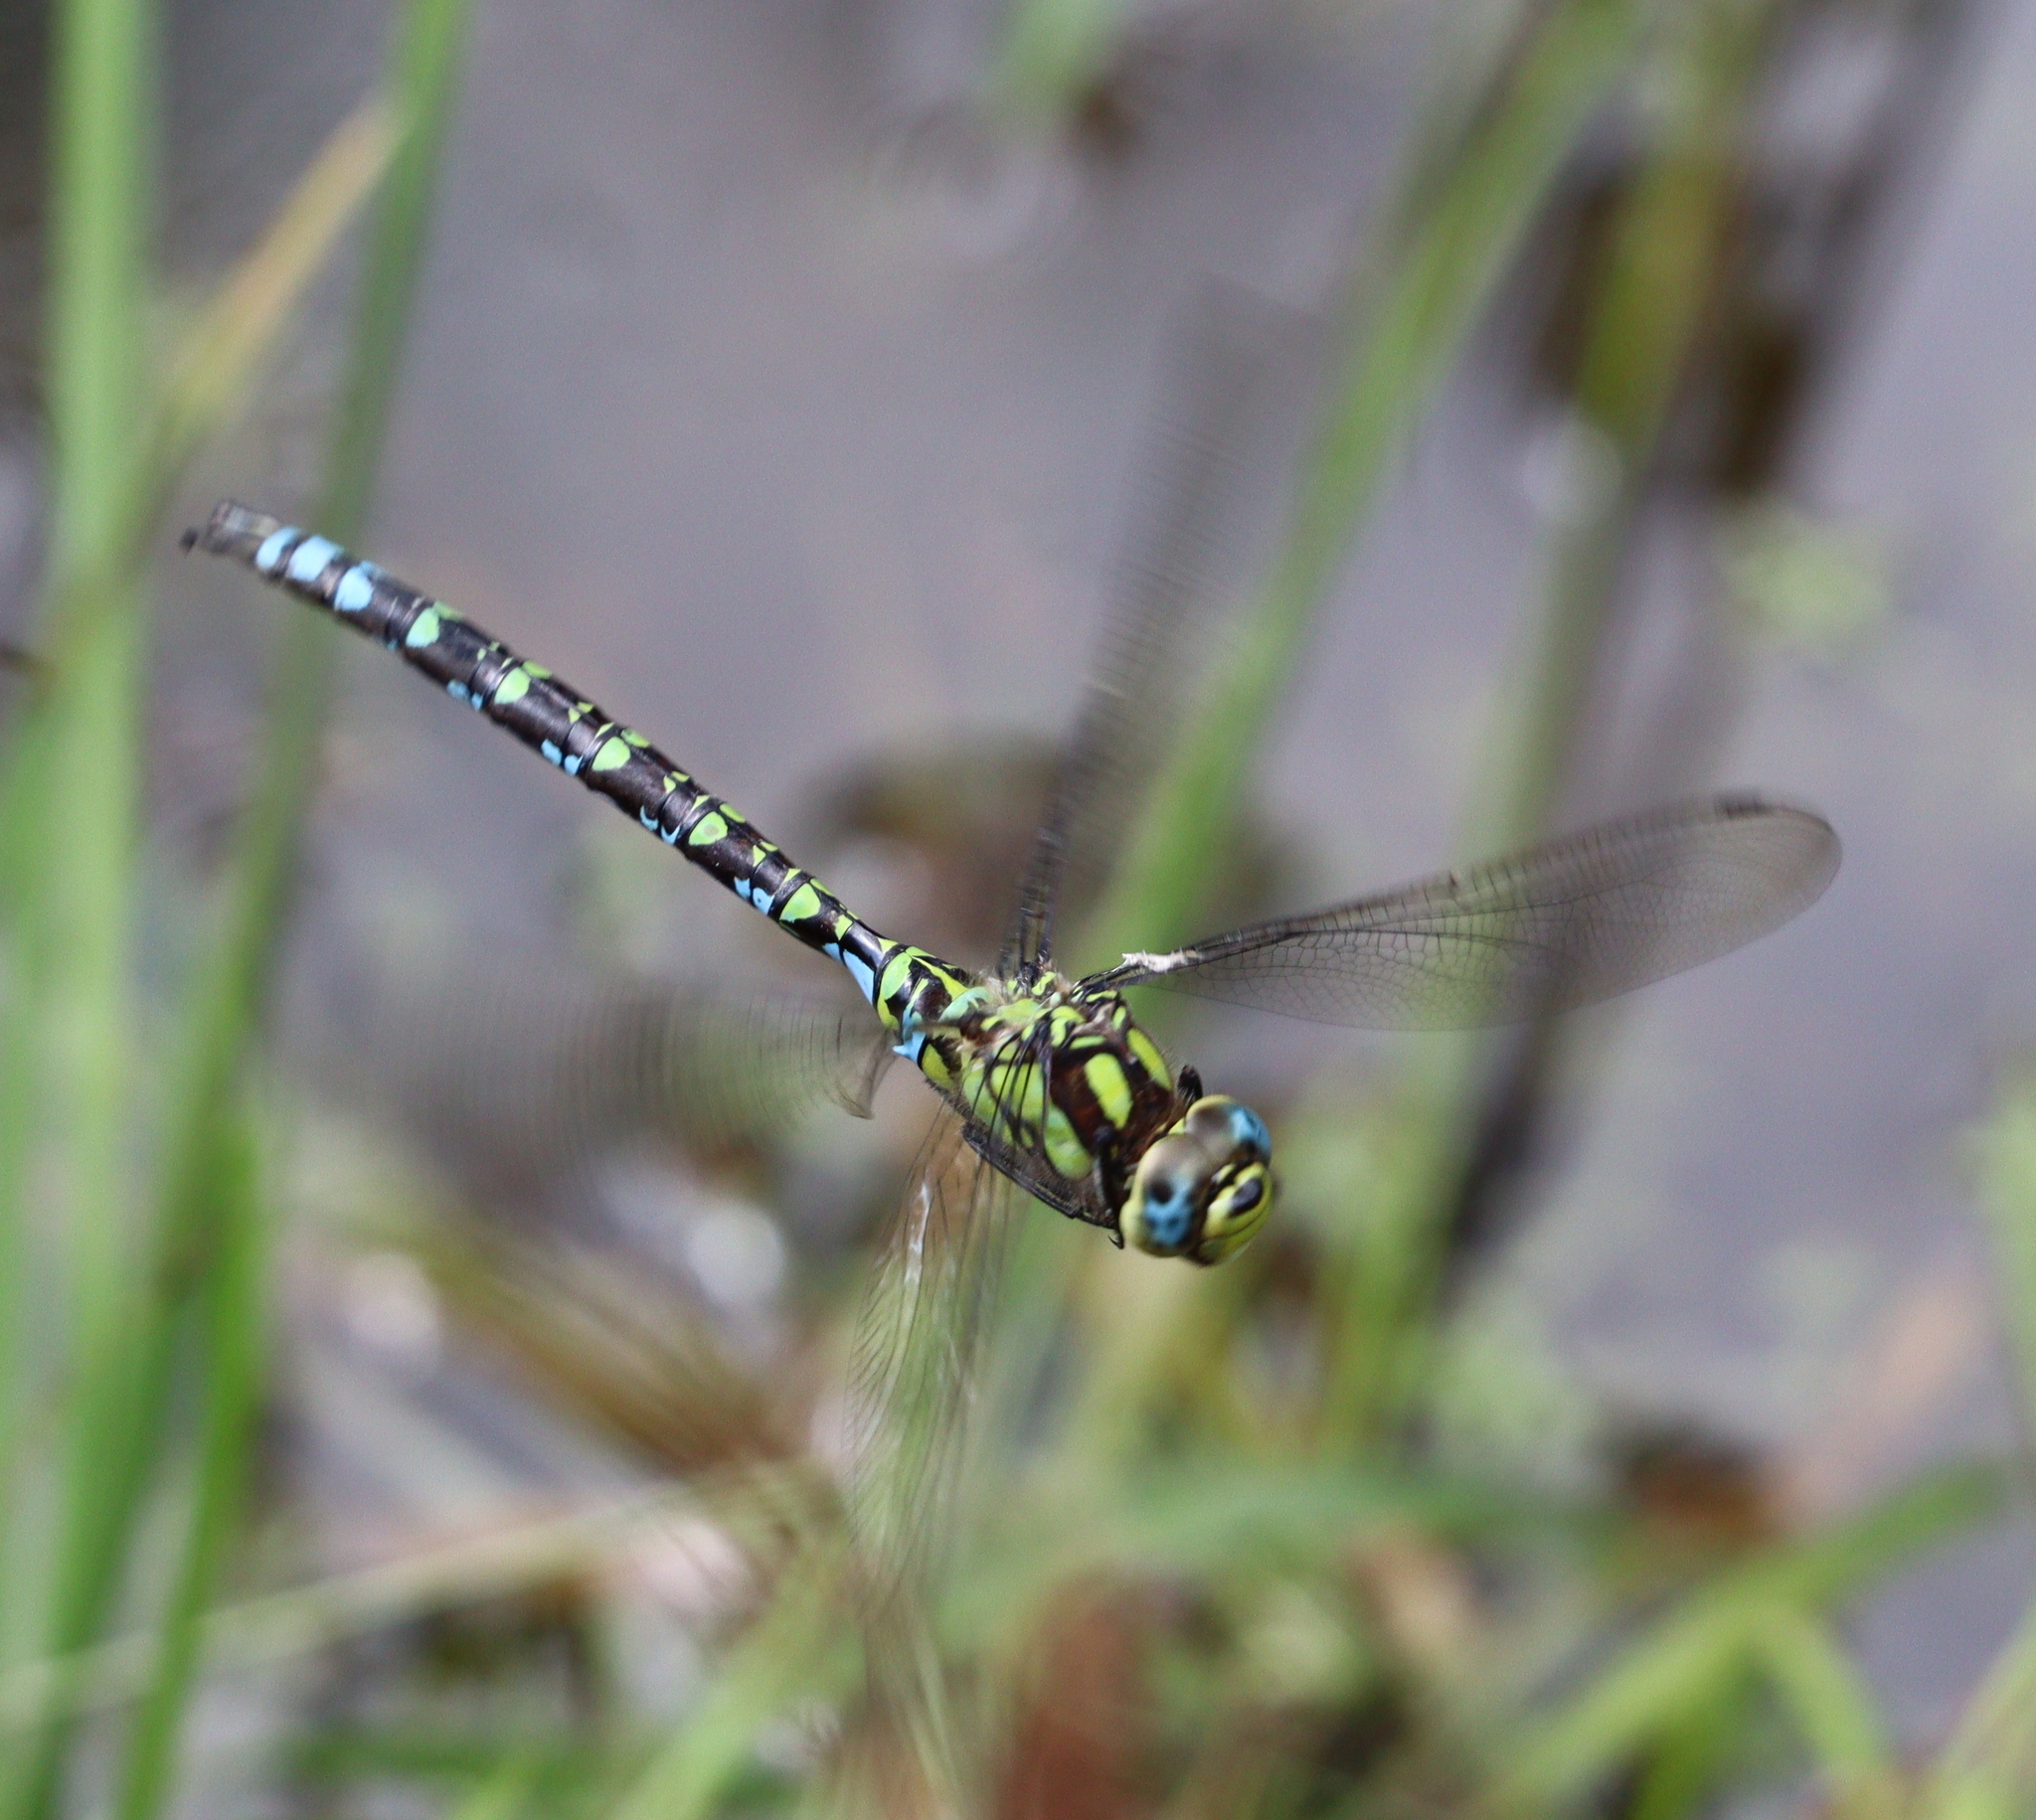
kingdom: Animalia
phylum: Arthropoda
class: Insecta
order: Odonata
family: Aeshnidae
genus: Aeshna
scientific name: Aeshna cyanea
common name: Southern hawker
